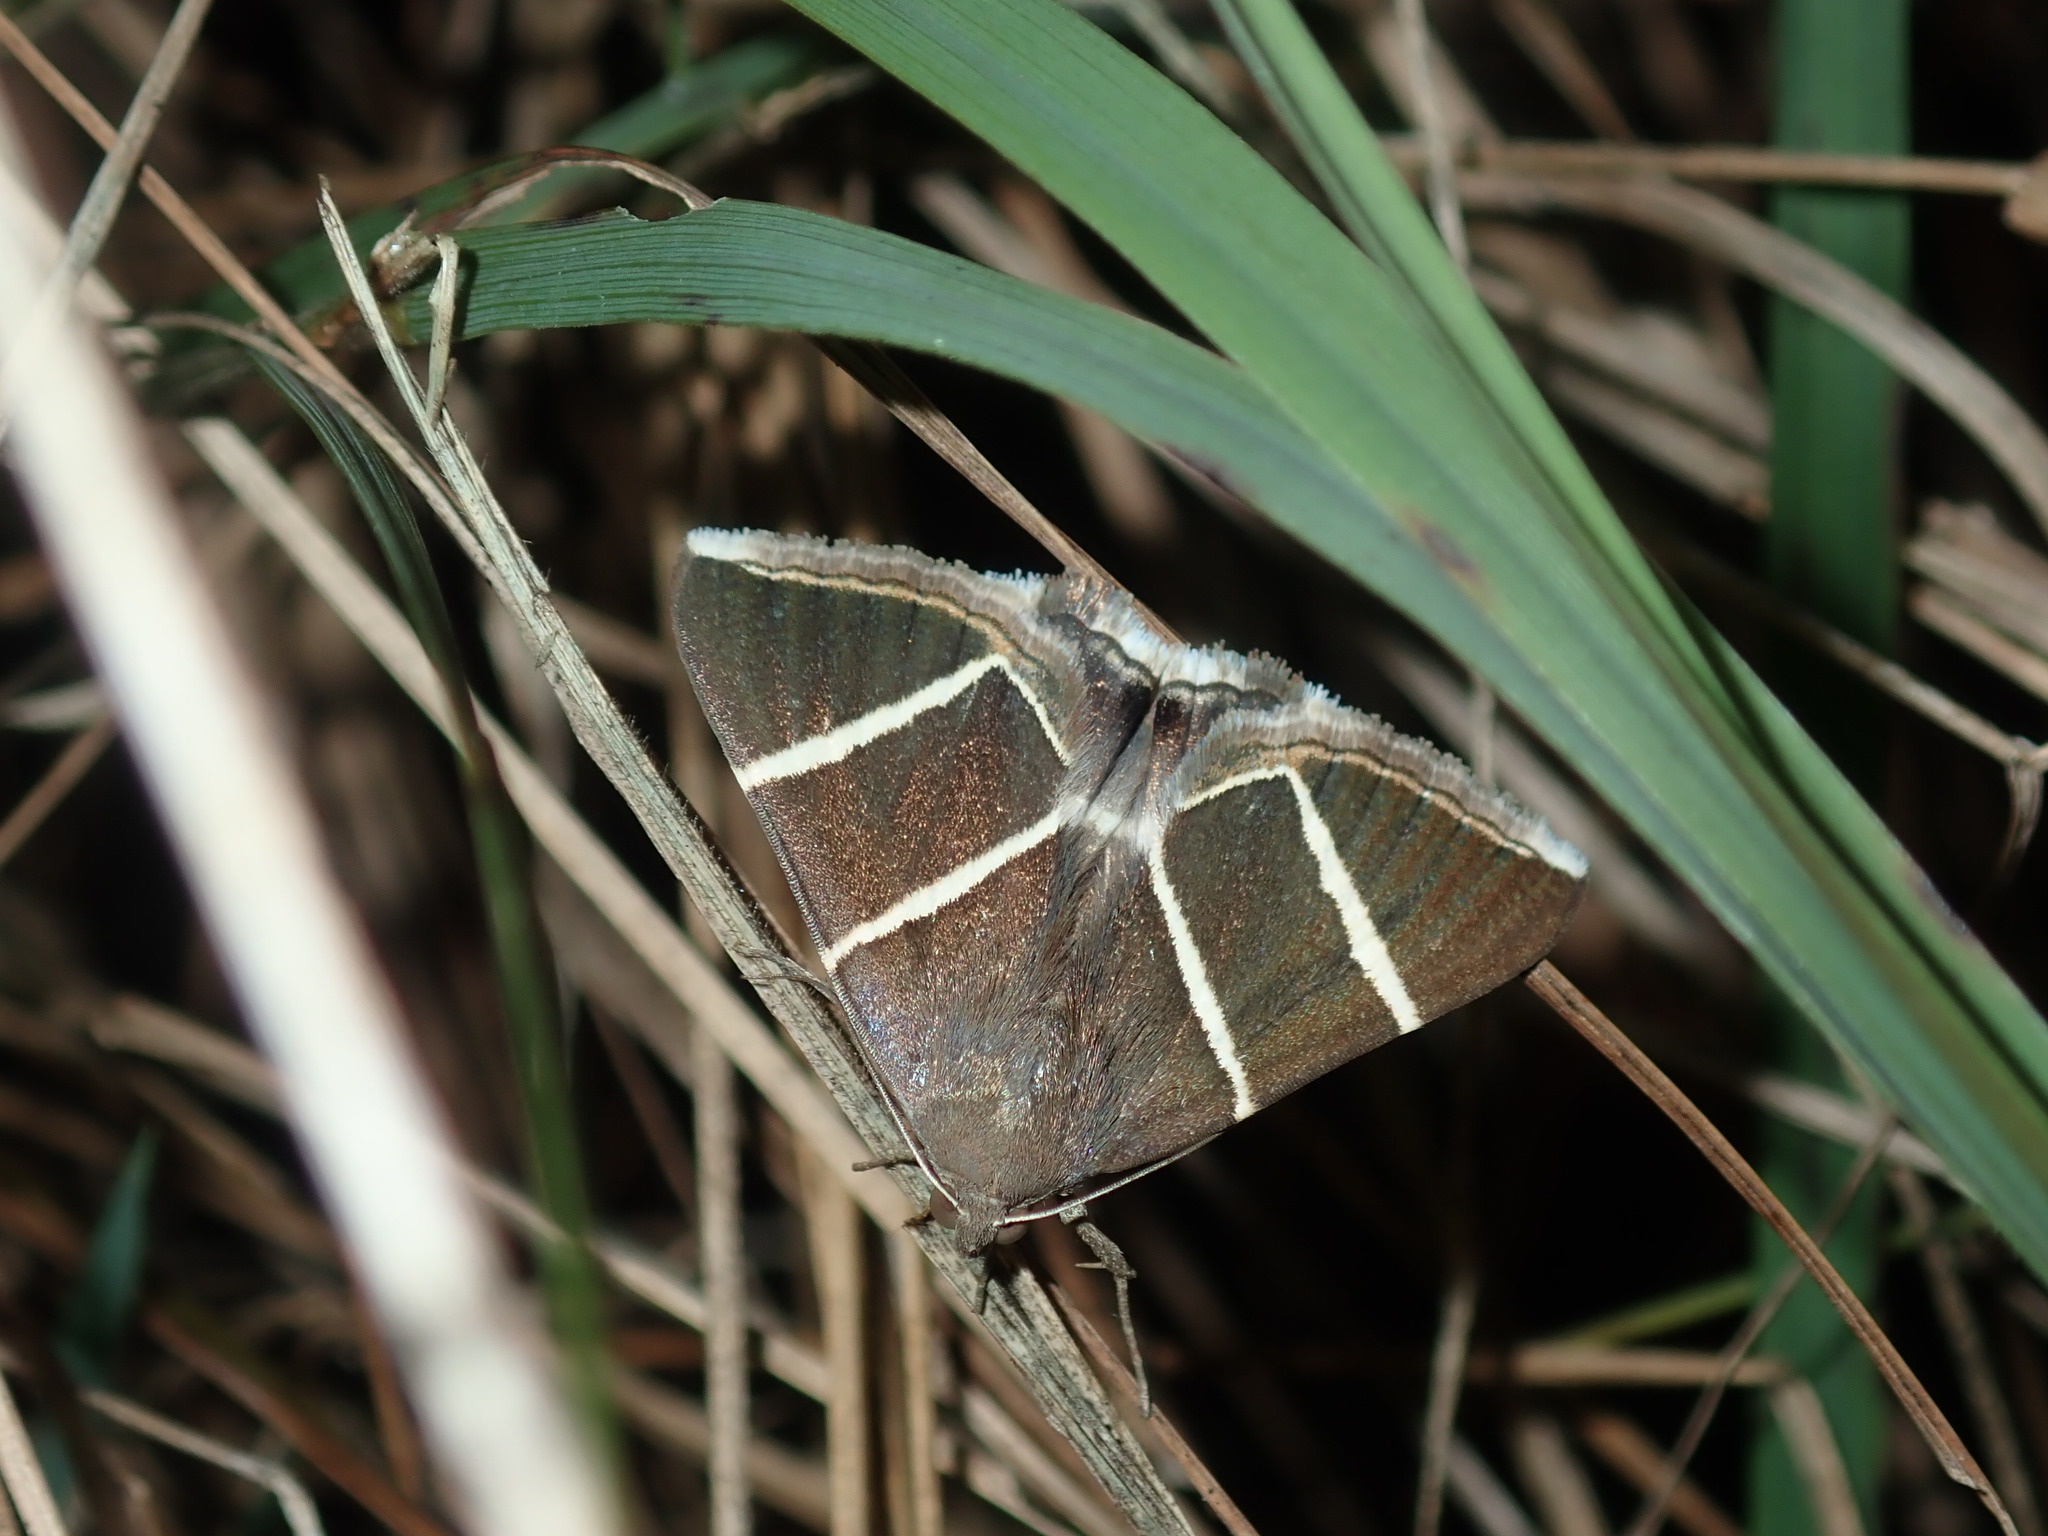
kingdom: Animalia
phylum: Arthropoda
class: Insecta
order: Lepidoptera
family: Erebidae
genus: Grammodes
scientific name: Grammodes justa
